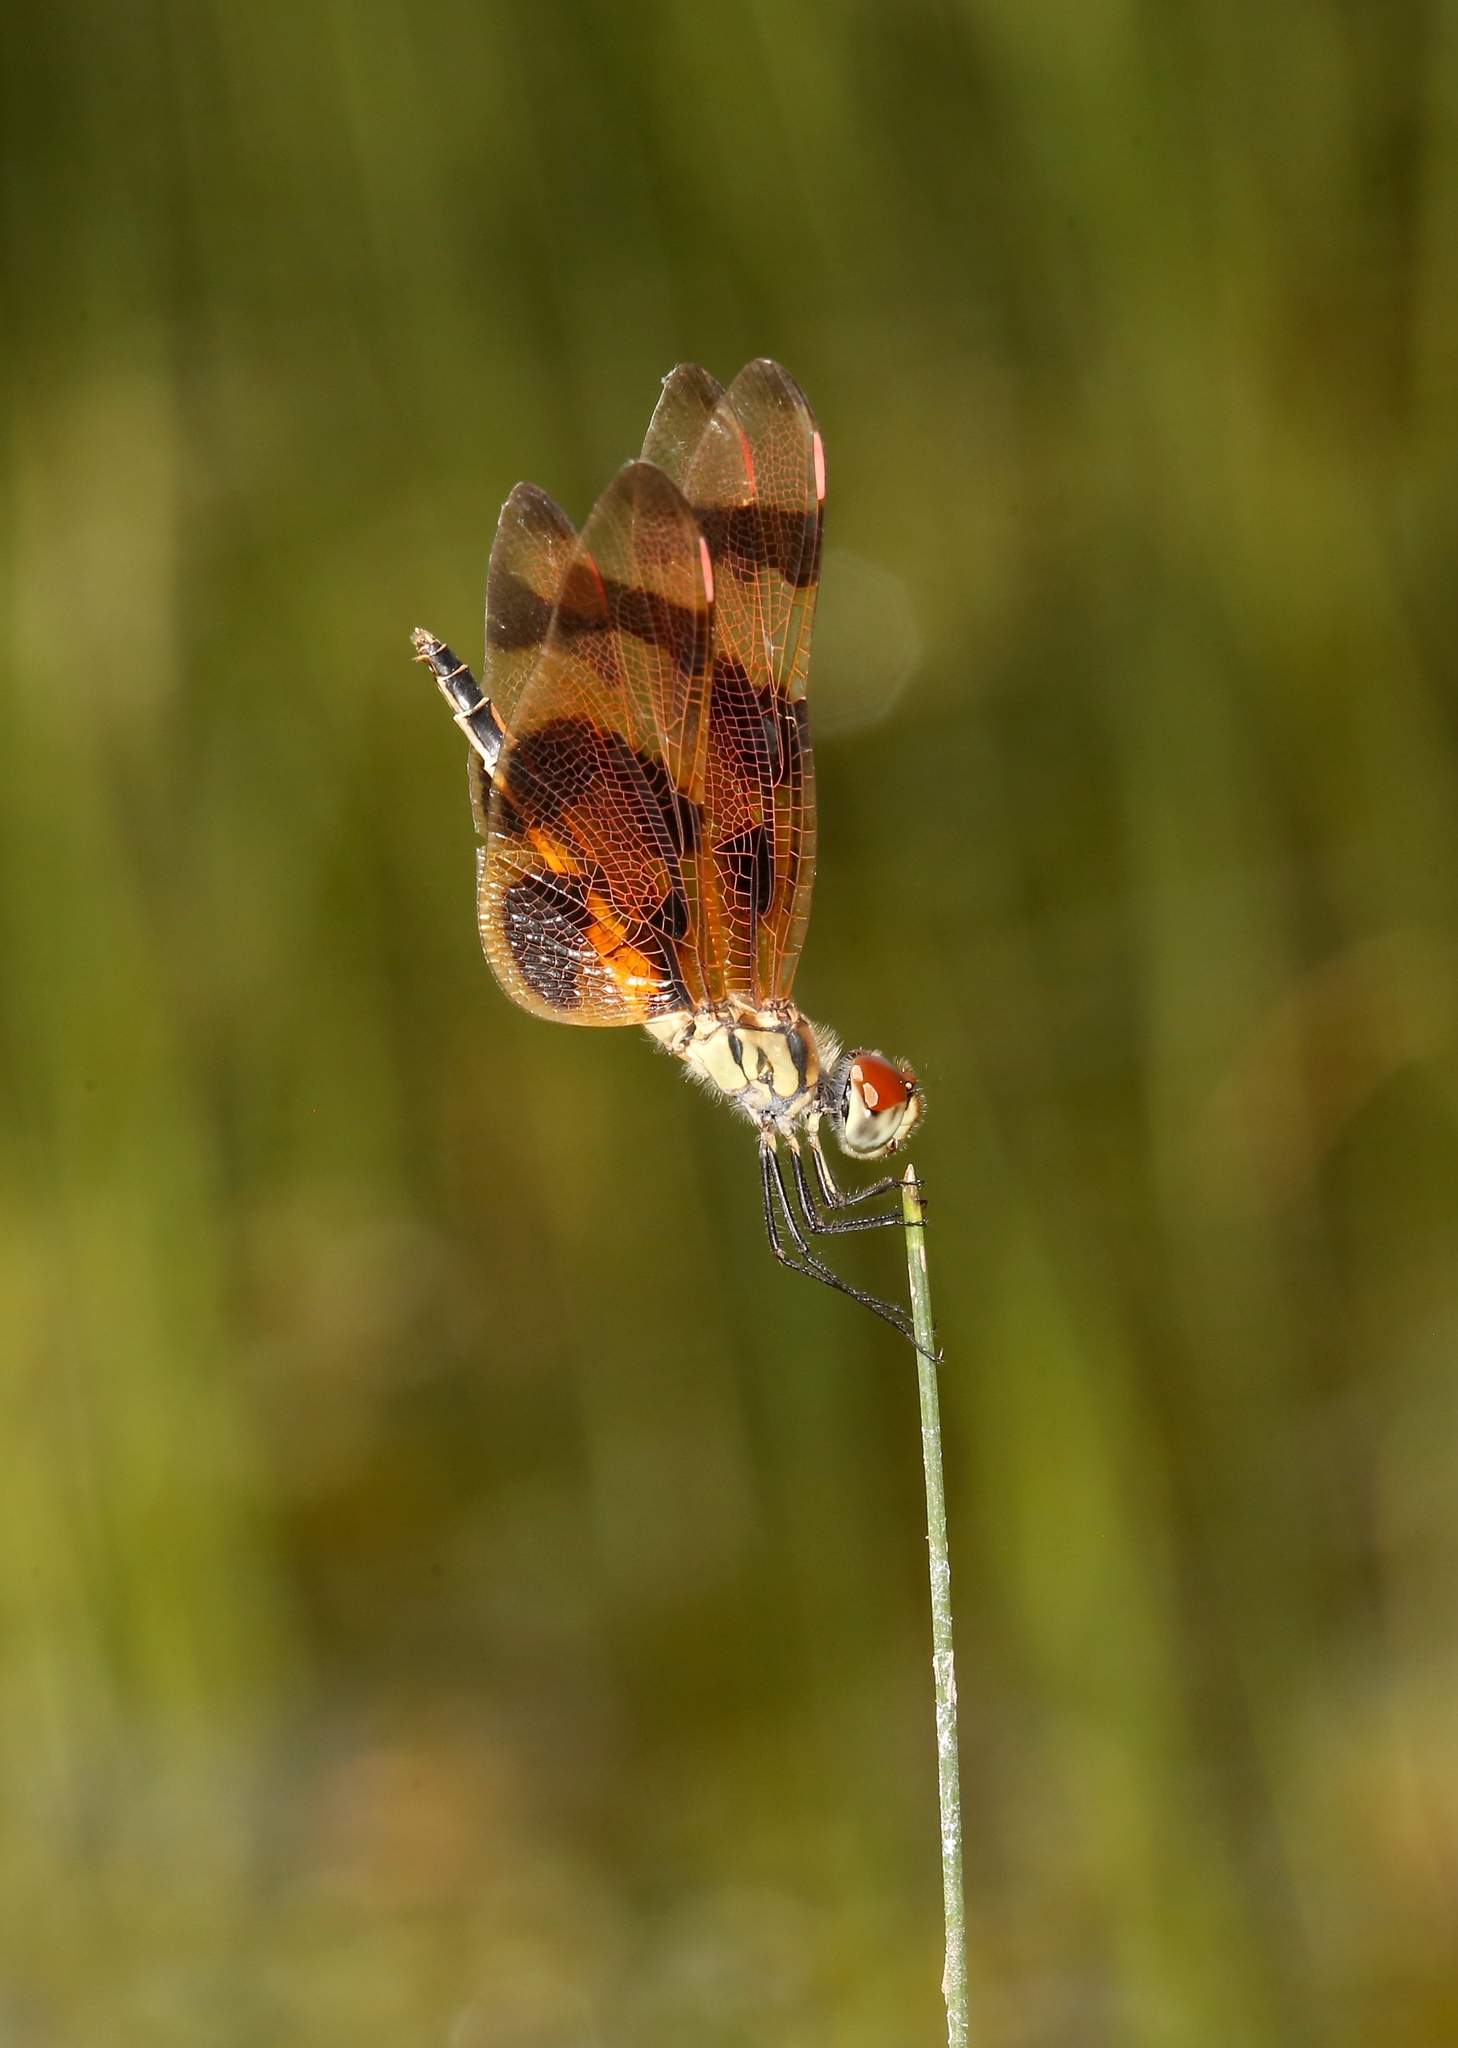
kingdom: Animalia
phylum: Arthropoda
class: Insecta
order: Odonata
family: Libellulidae
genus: Celithemis
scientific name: Celithemis eponina
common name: Halloween pennant
